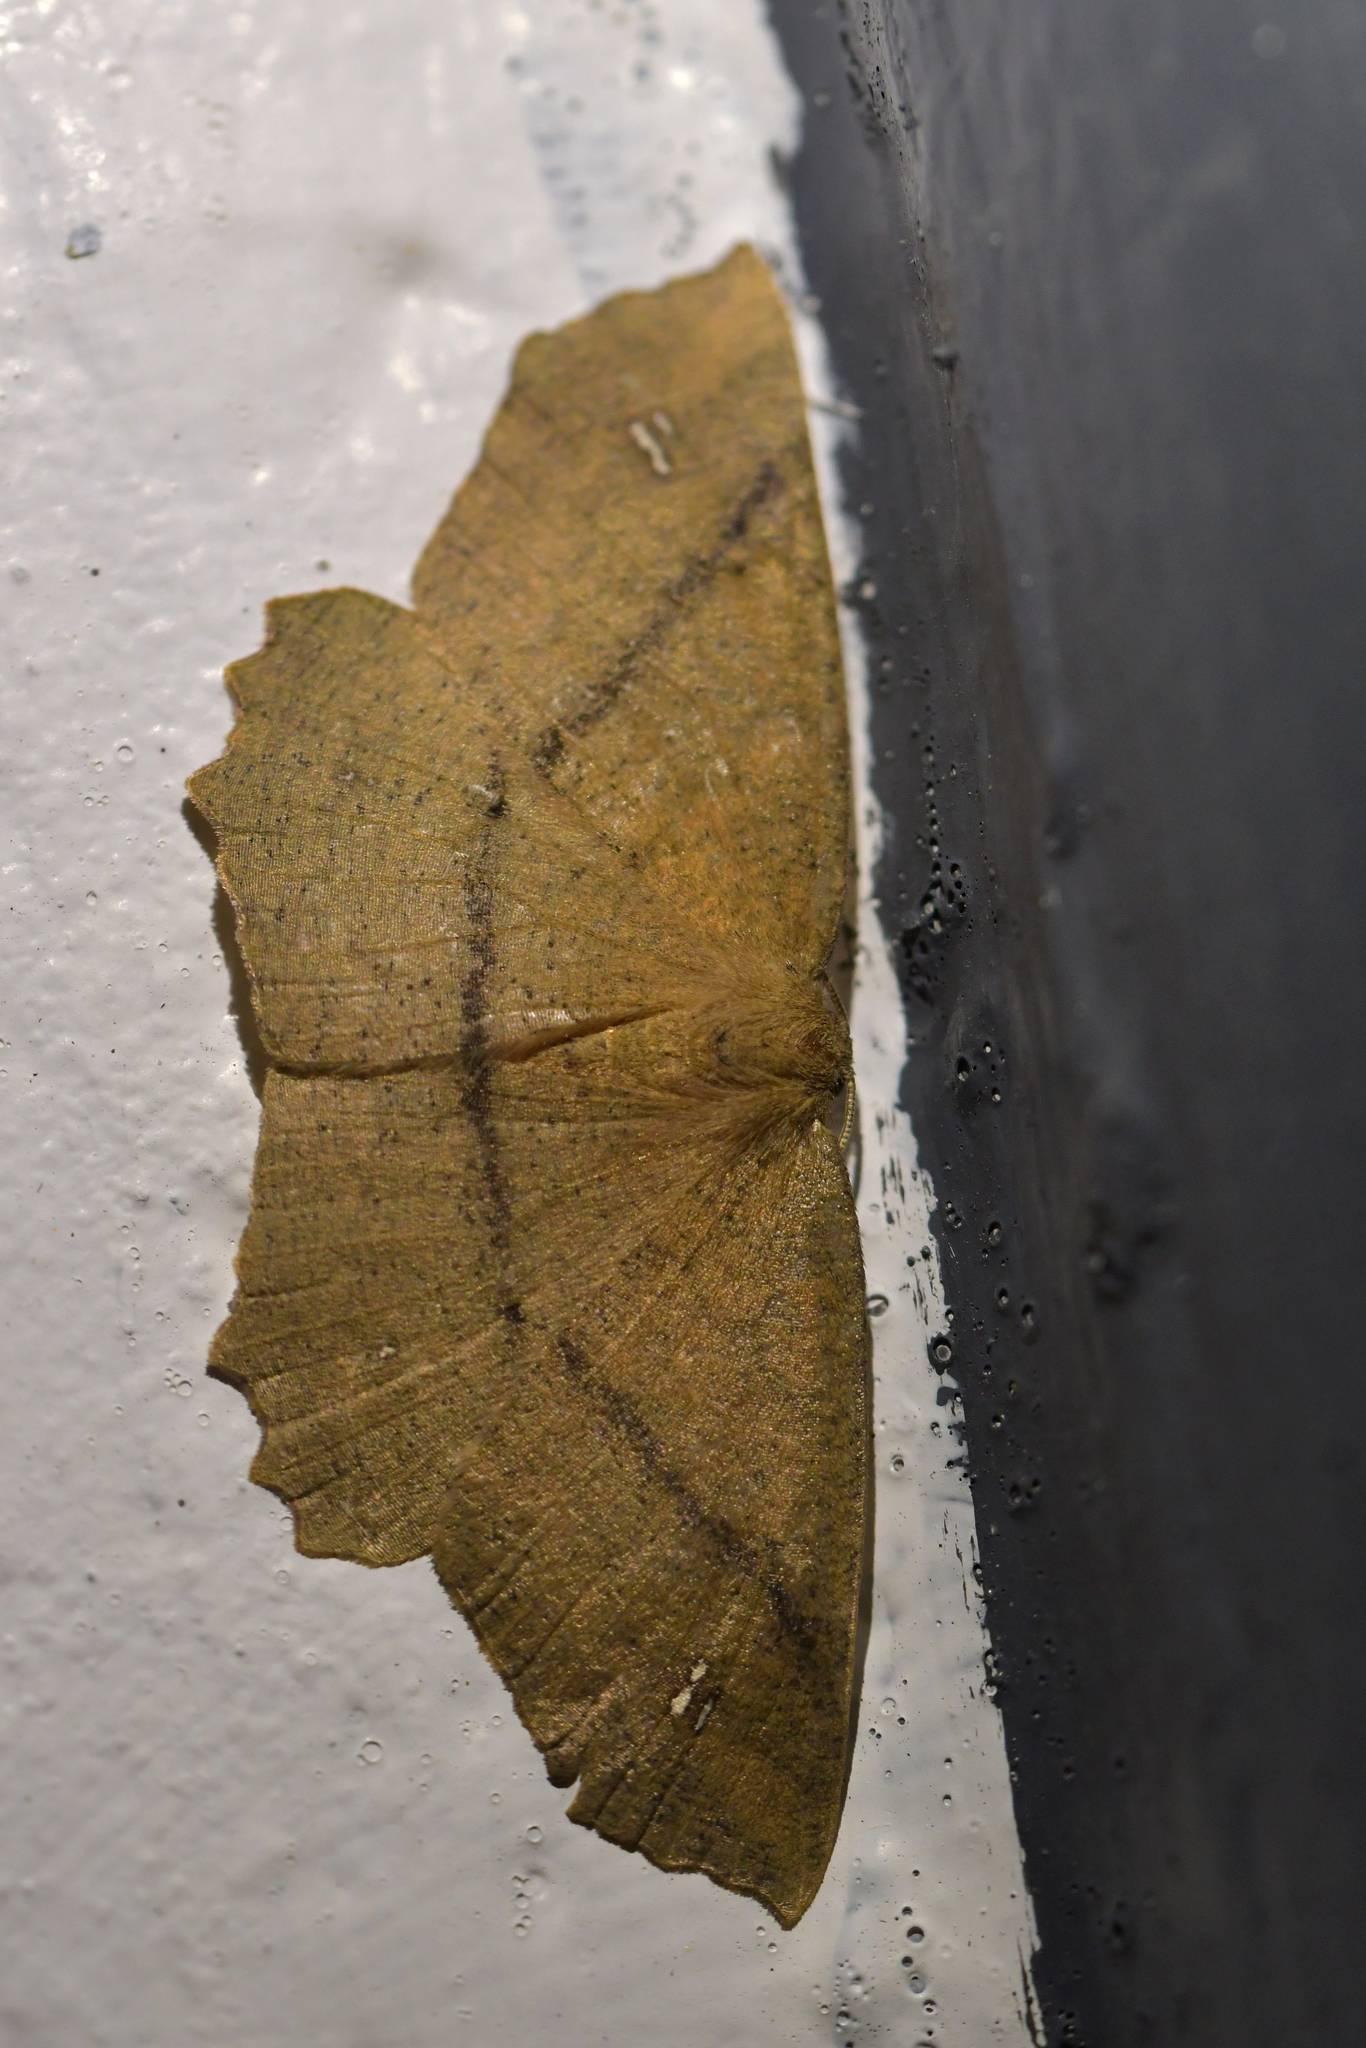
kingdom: Animalia
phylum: Arthropoda
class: Insecta
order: Lepidoptera
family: Geometridae
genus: Xyridacma
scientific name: Xyridacma ustaria
